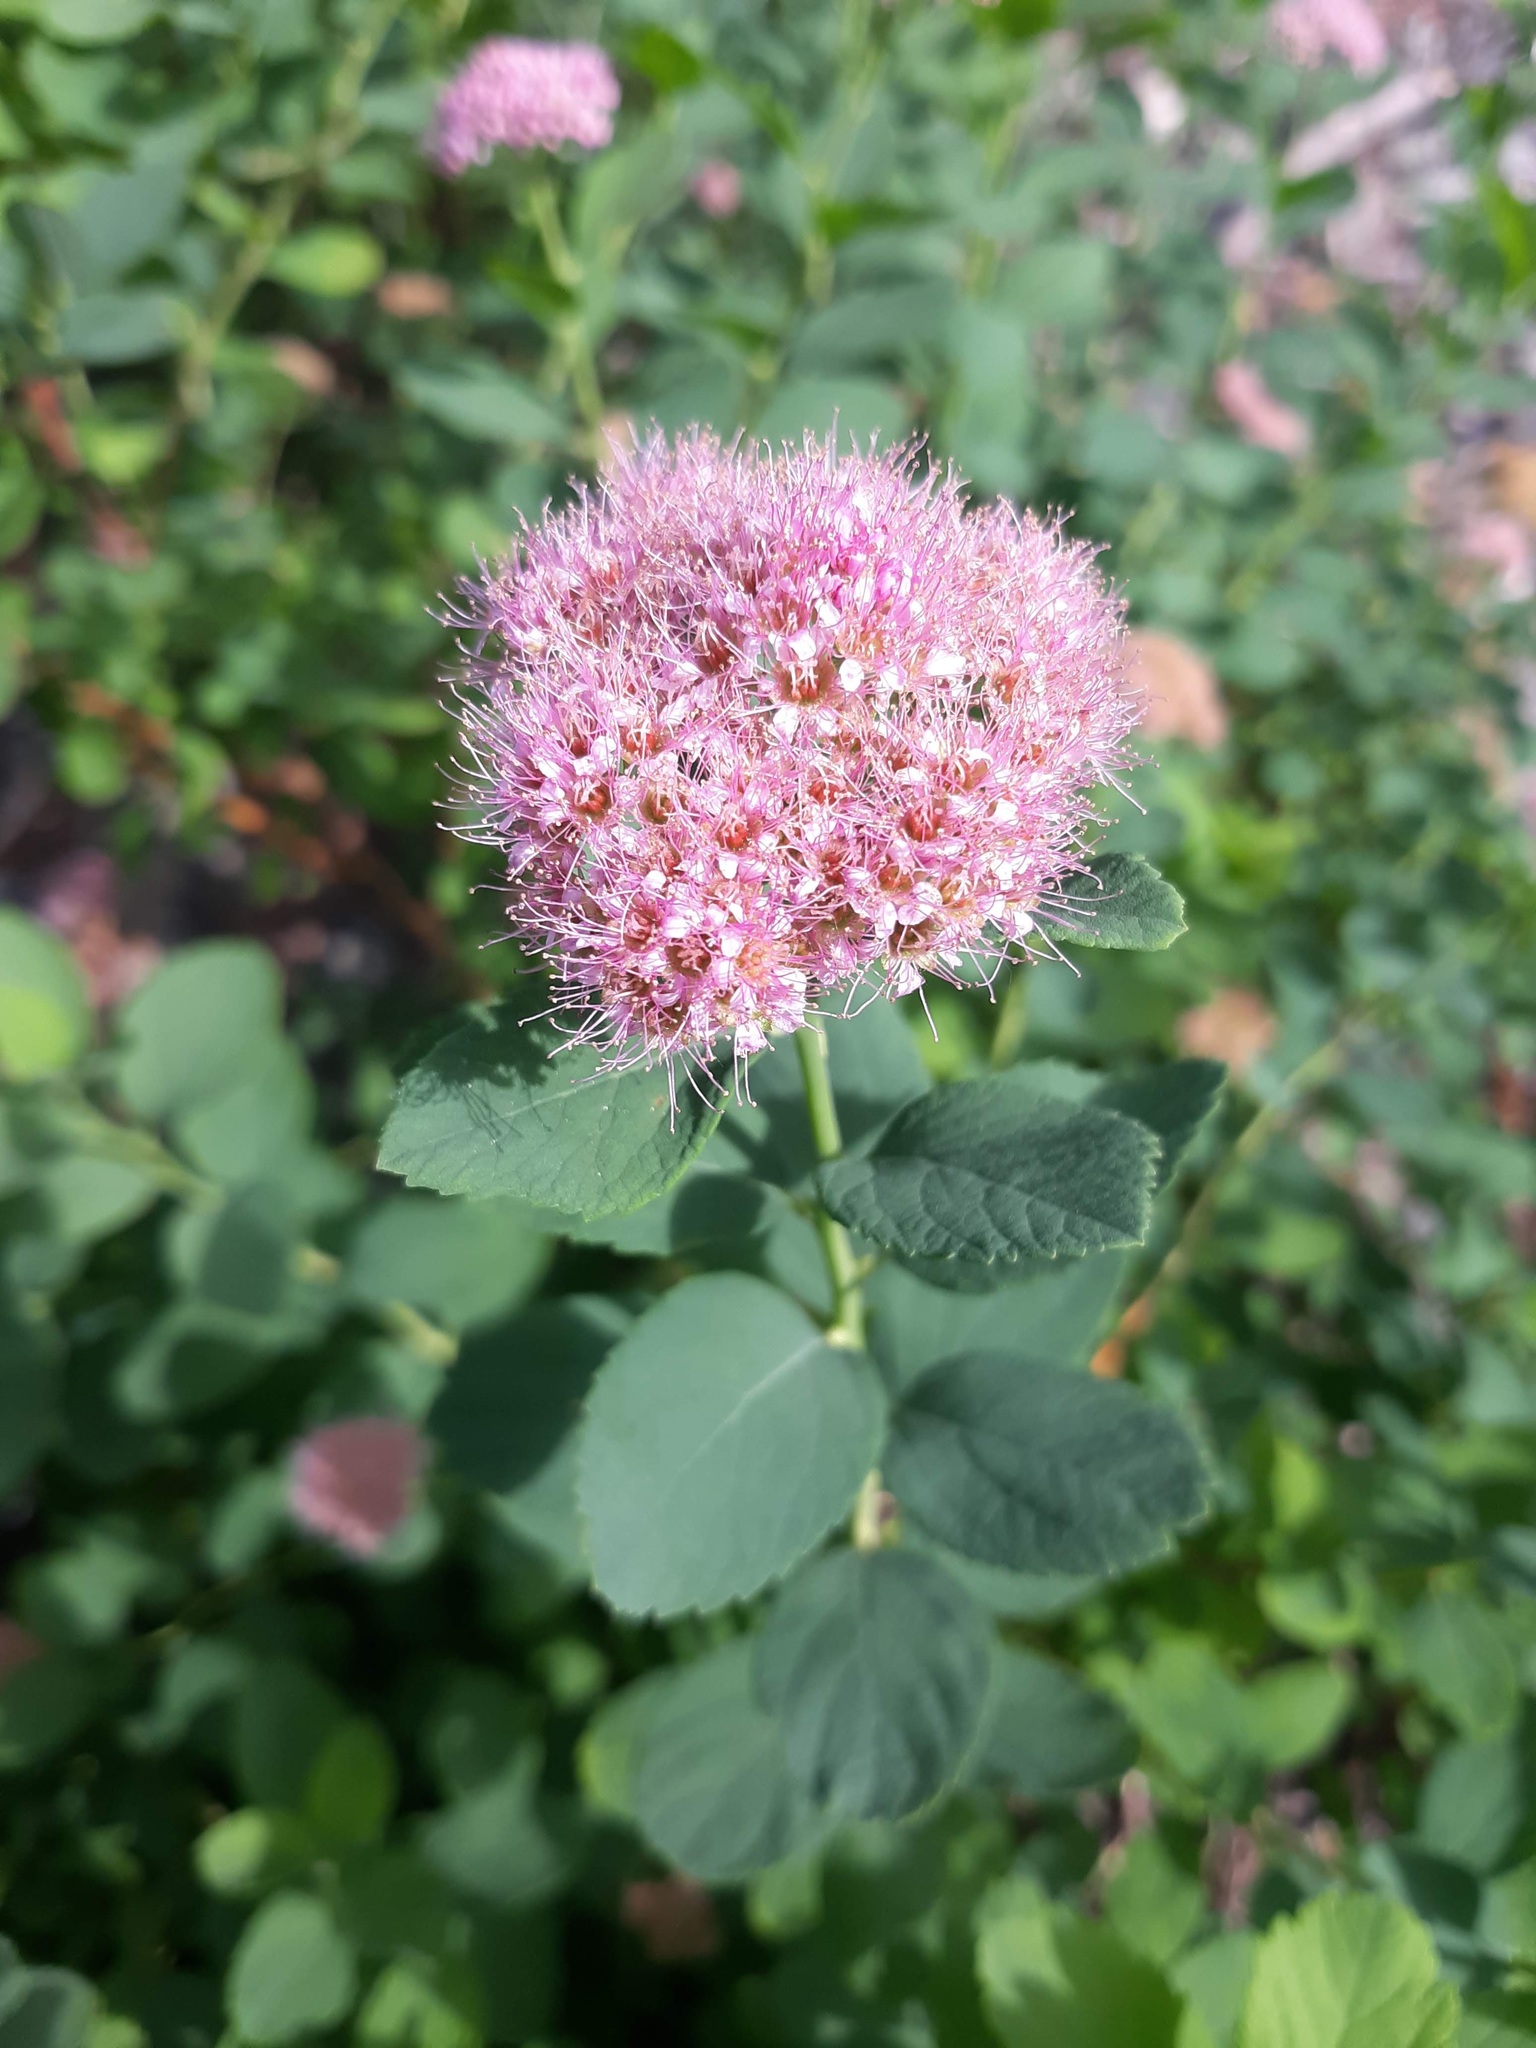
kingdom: Plantae
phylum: Tracheophyta
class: Magnoliopsida
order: Rosales
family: Rosaceae
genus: Spiraea
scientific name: Spiraea splendens
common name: Subalpine meadowsweet
